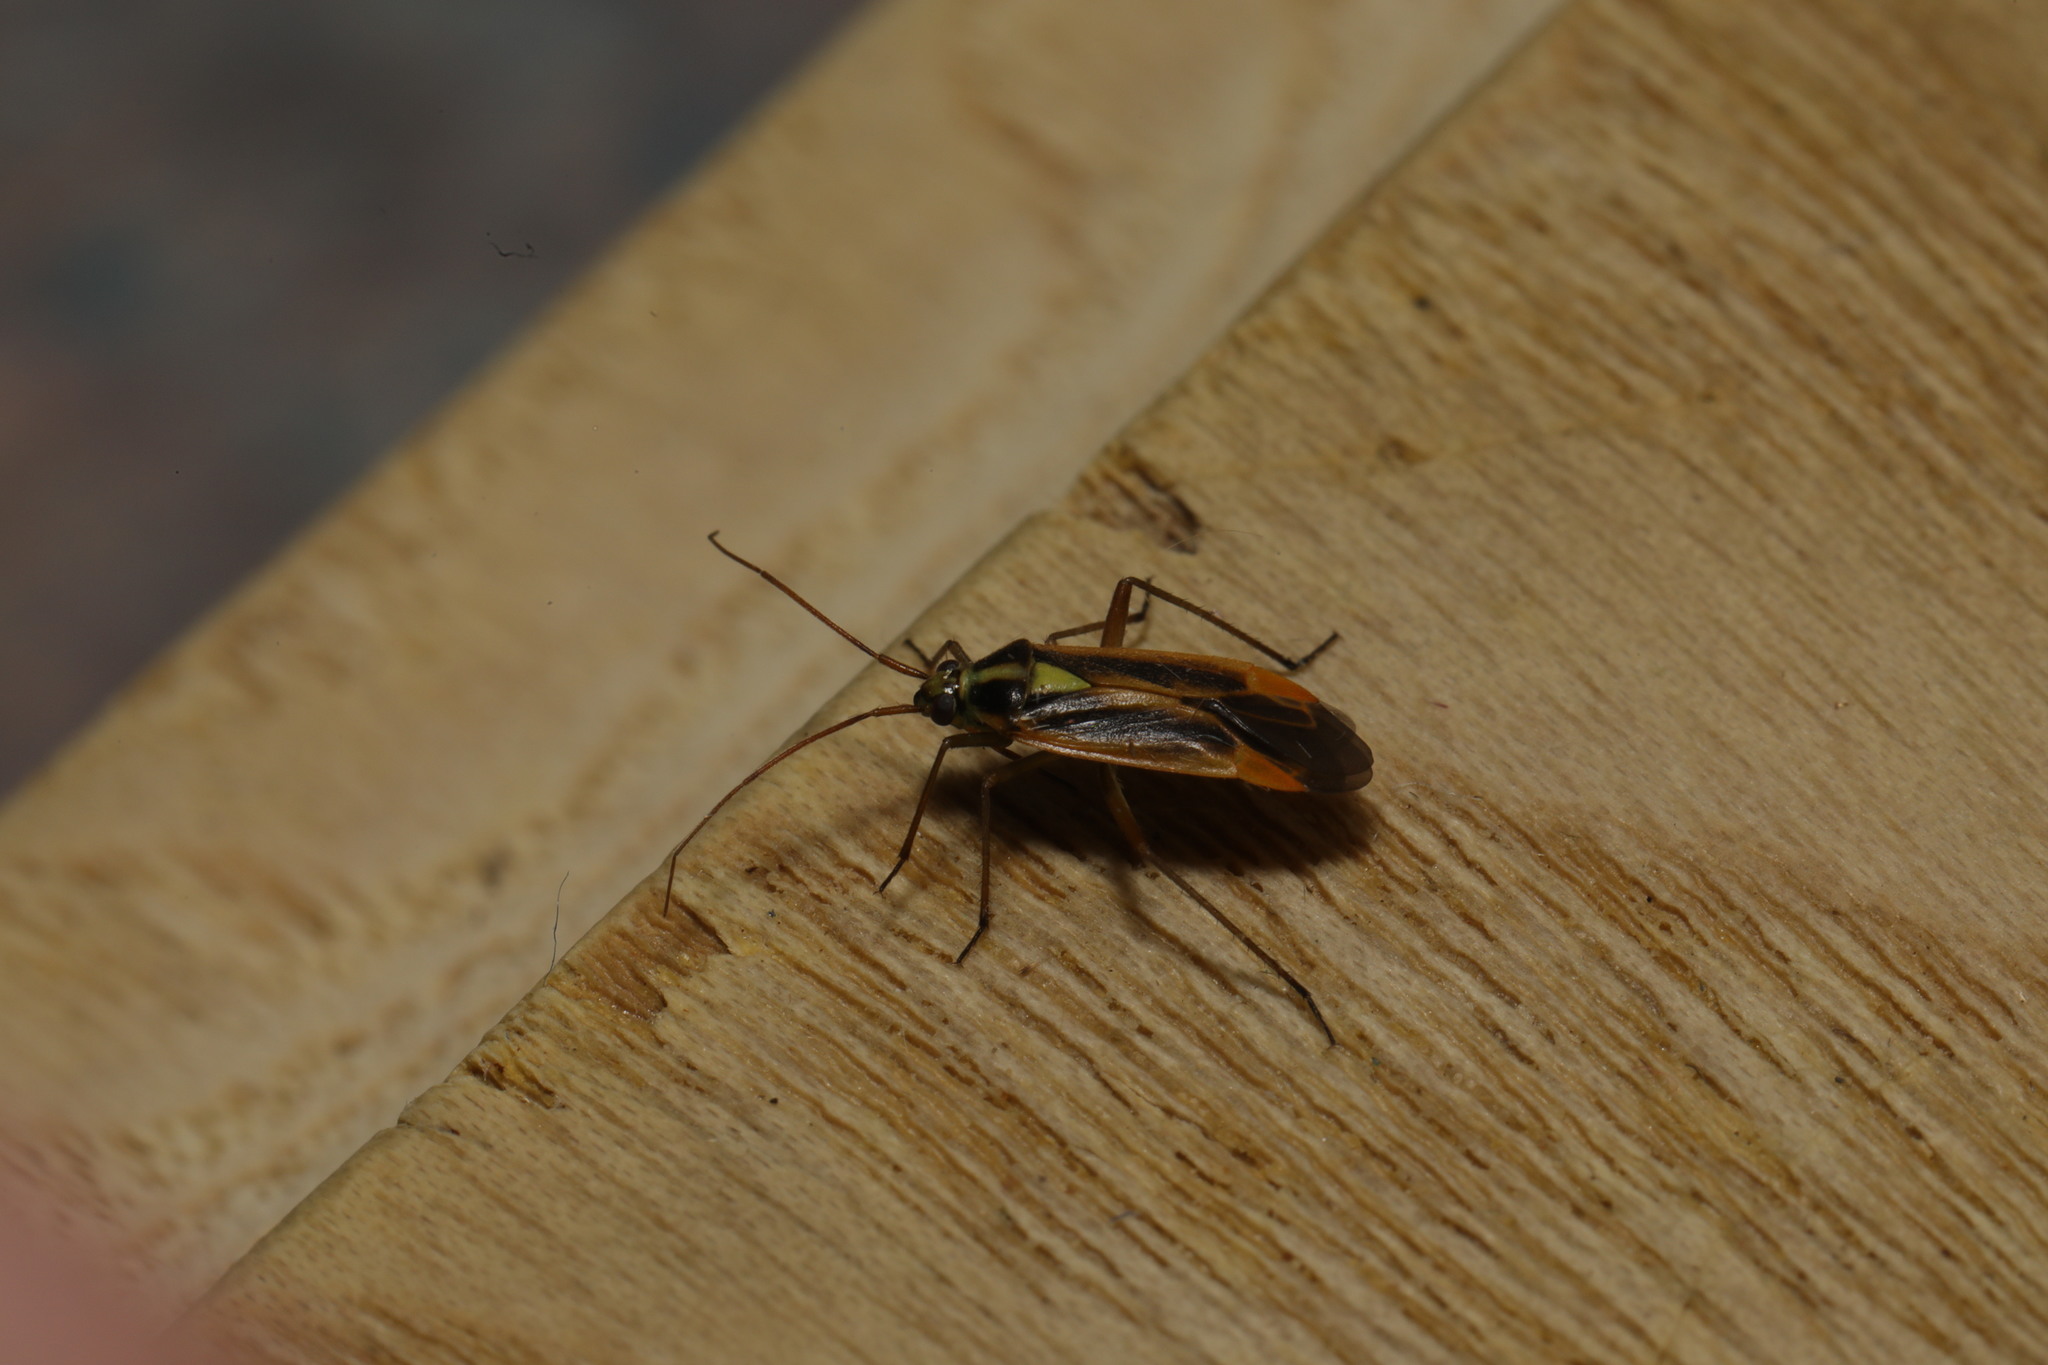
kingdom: Animalia
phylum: Arthropoda
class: Insecta
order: Hemiptera
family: Miridae
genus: Stenotus
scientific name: Stenotus binotatus
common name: Plant bug
